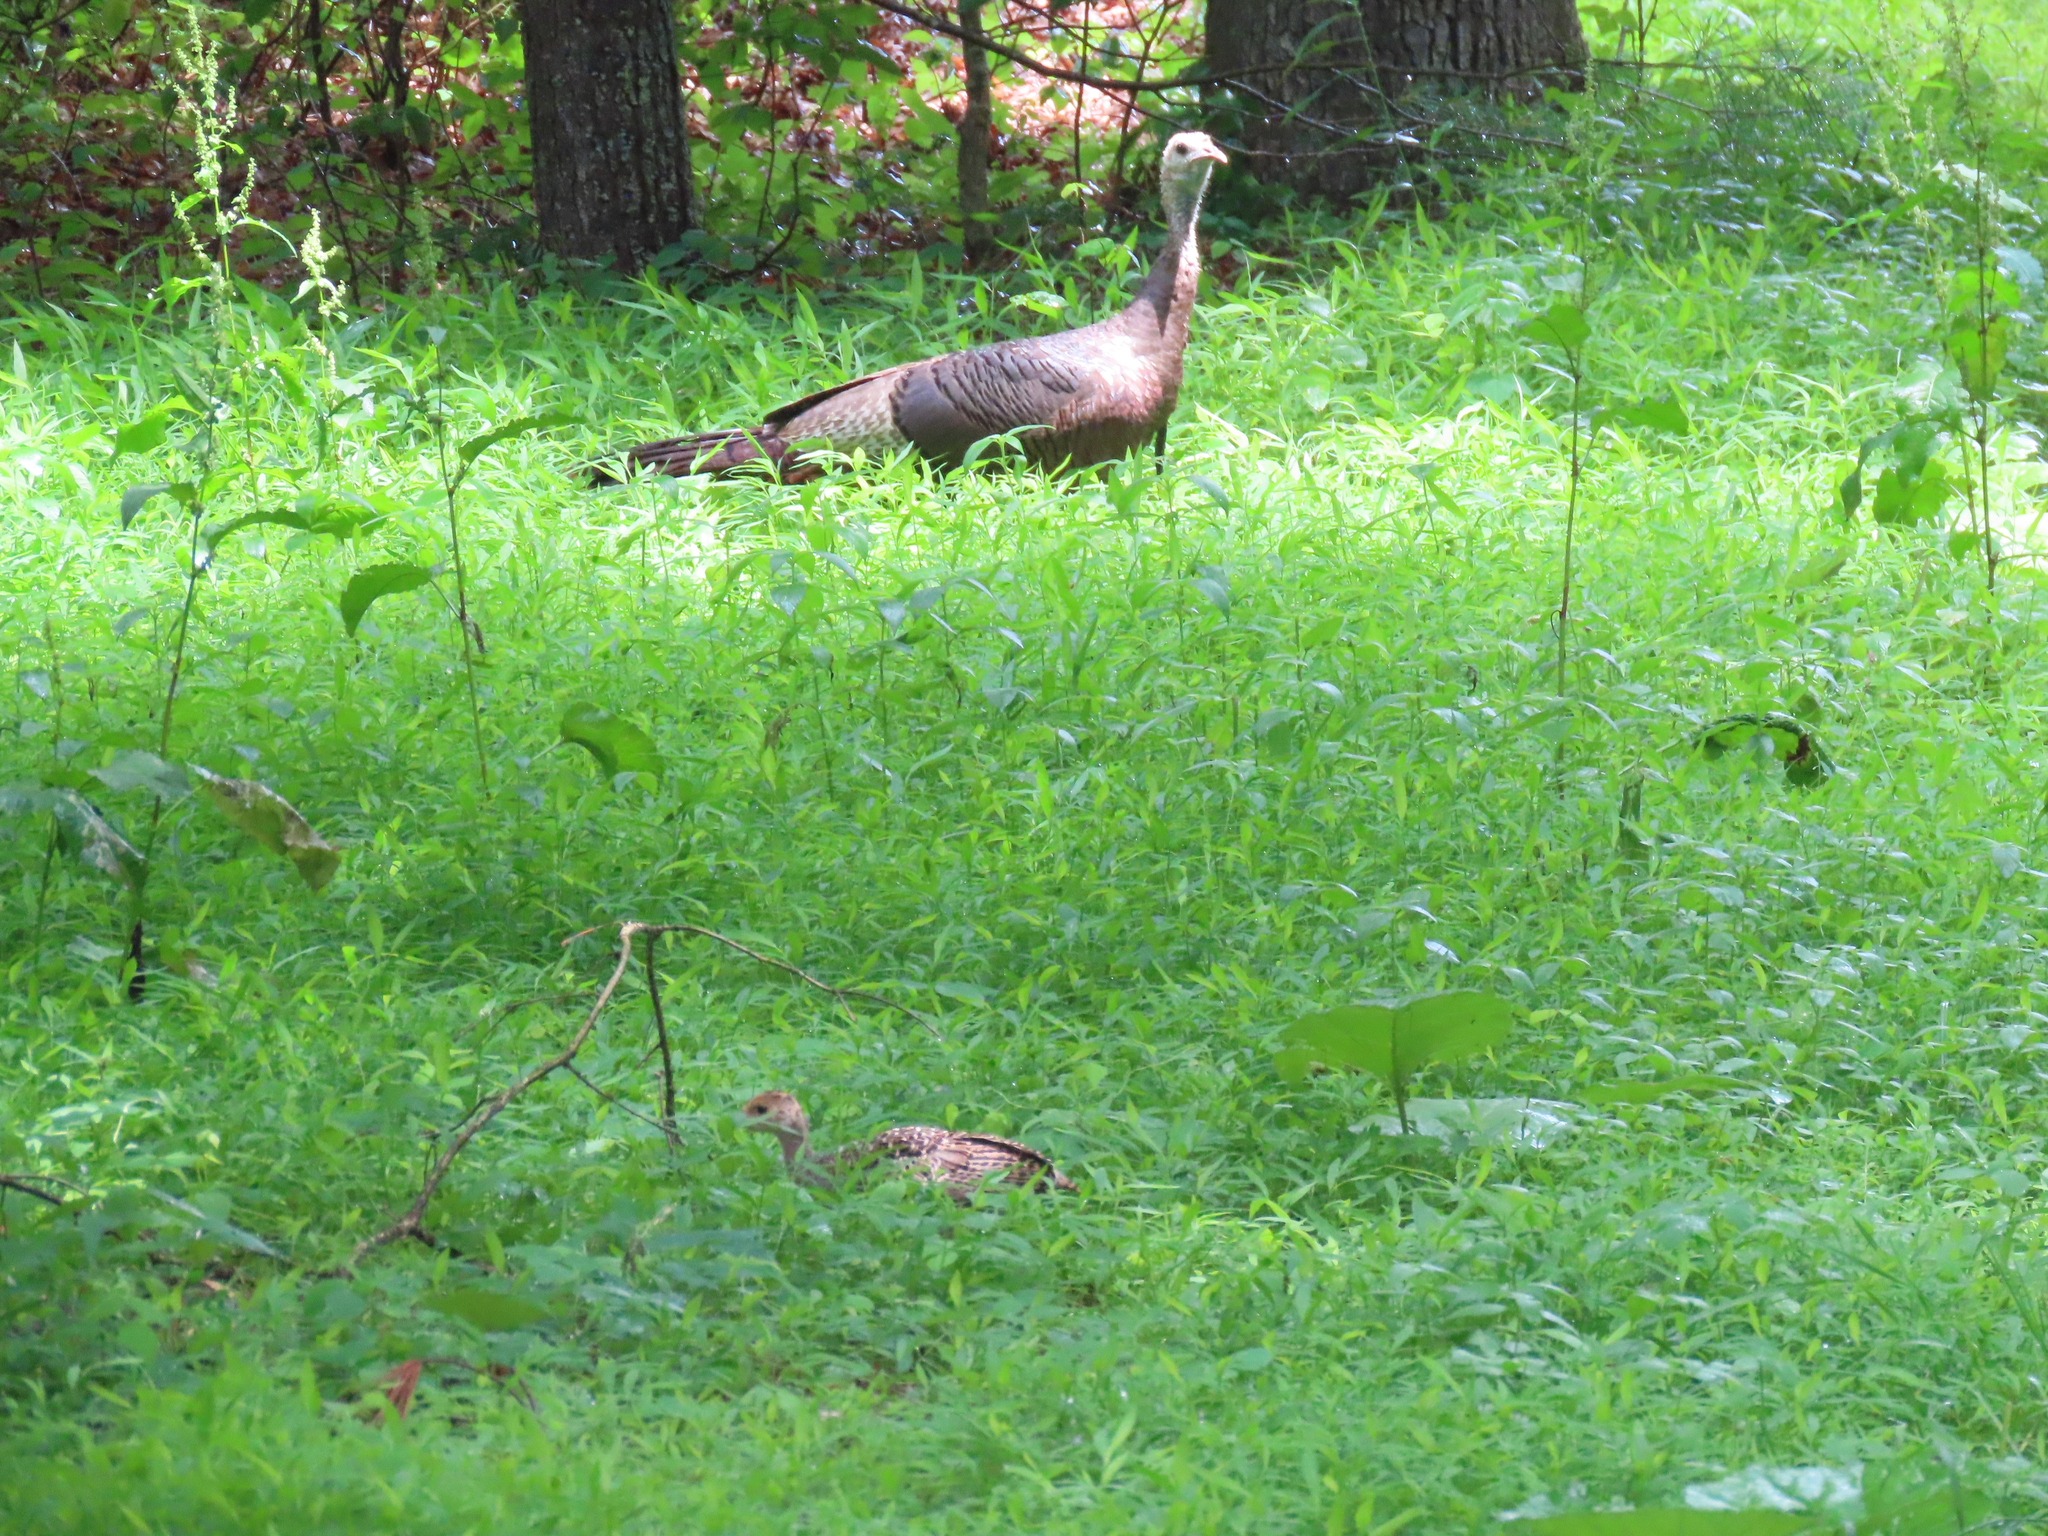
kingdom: Animalia
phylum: Chordata
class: Aves
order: Galliformes
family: Phasianidae
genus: Meleagris
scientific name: Meleagris gallopavo
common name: Wild turkey
